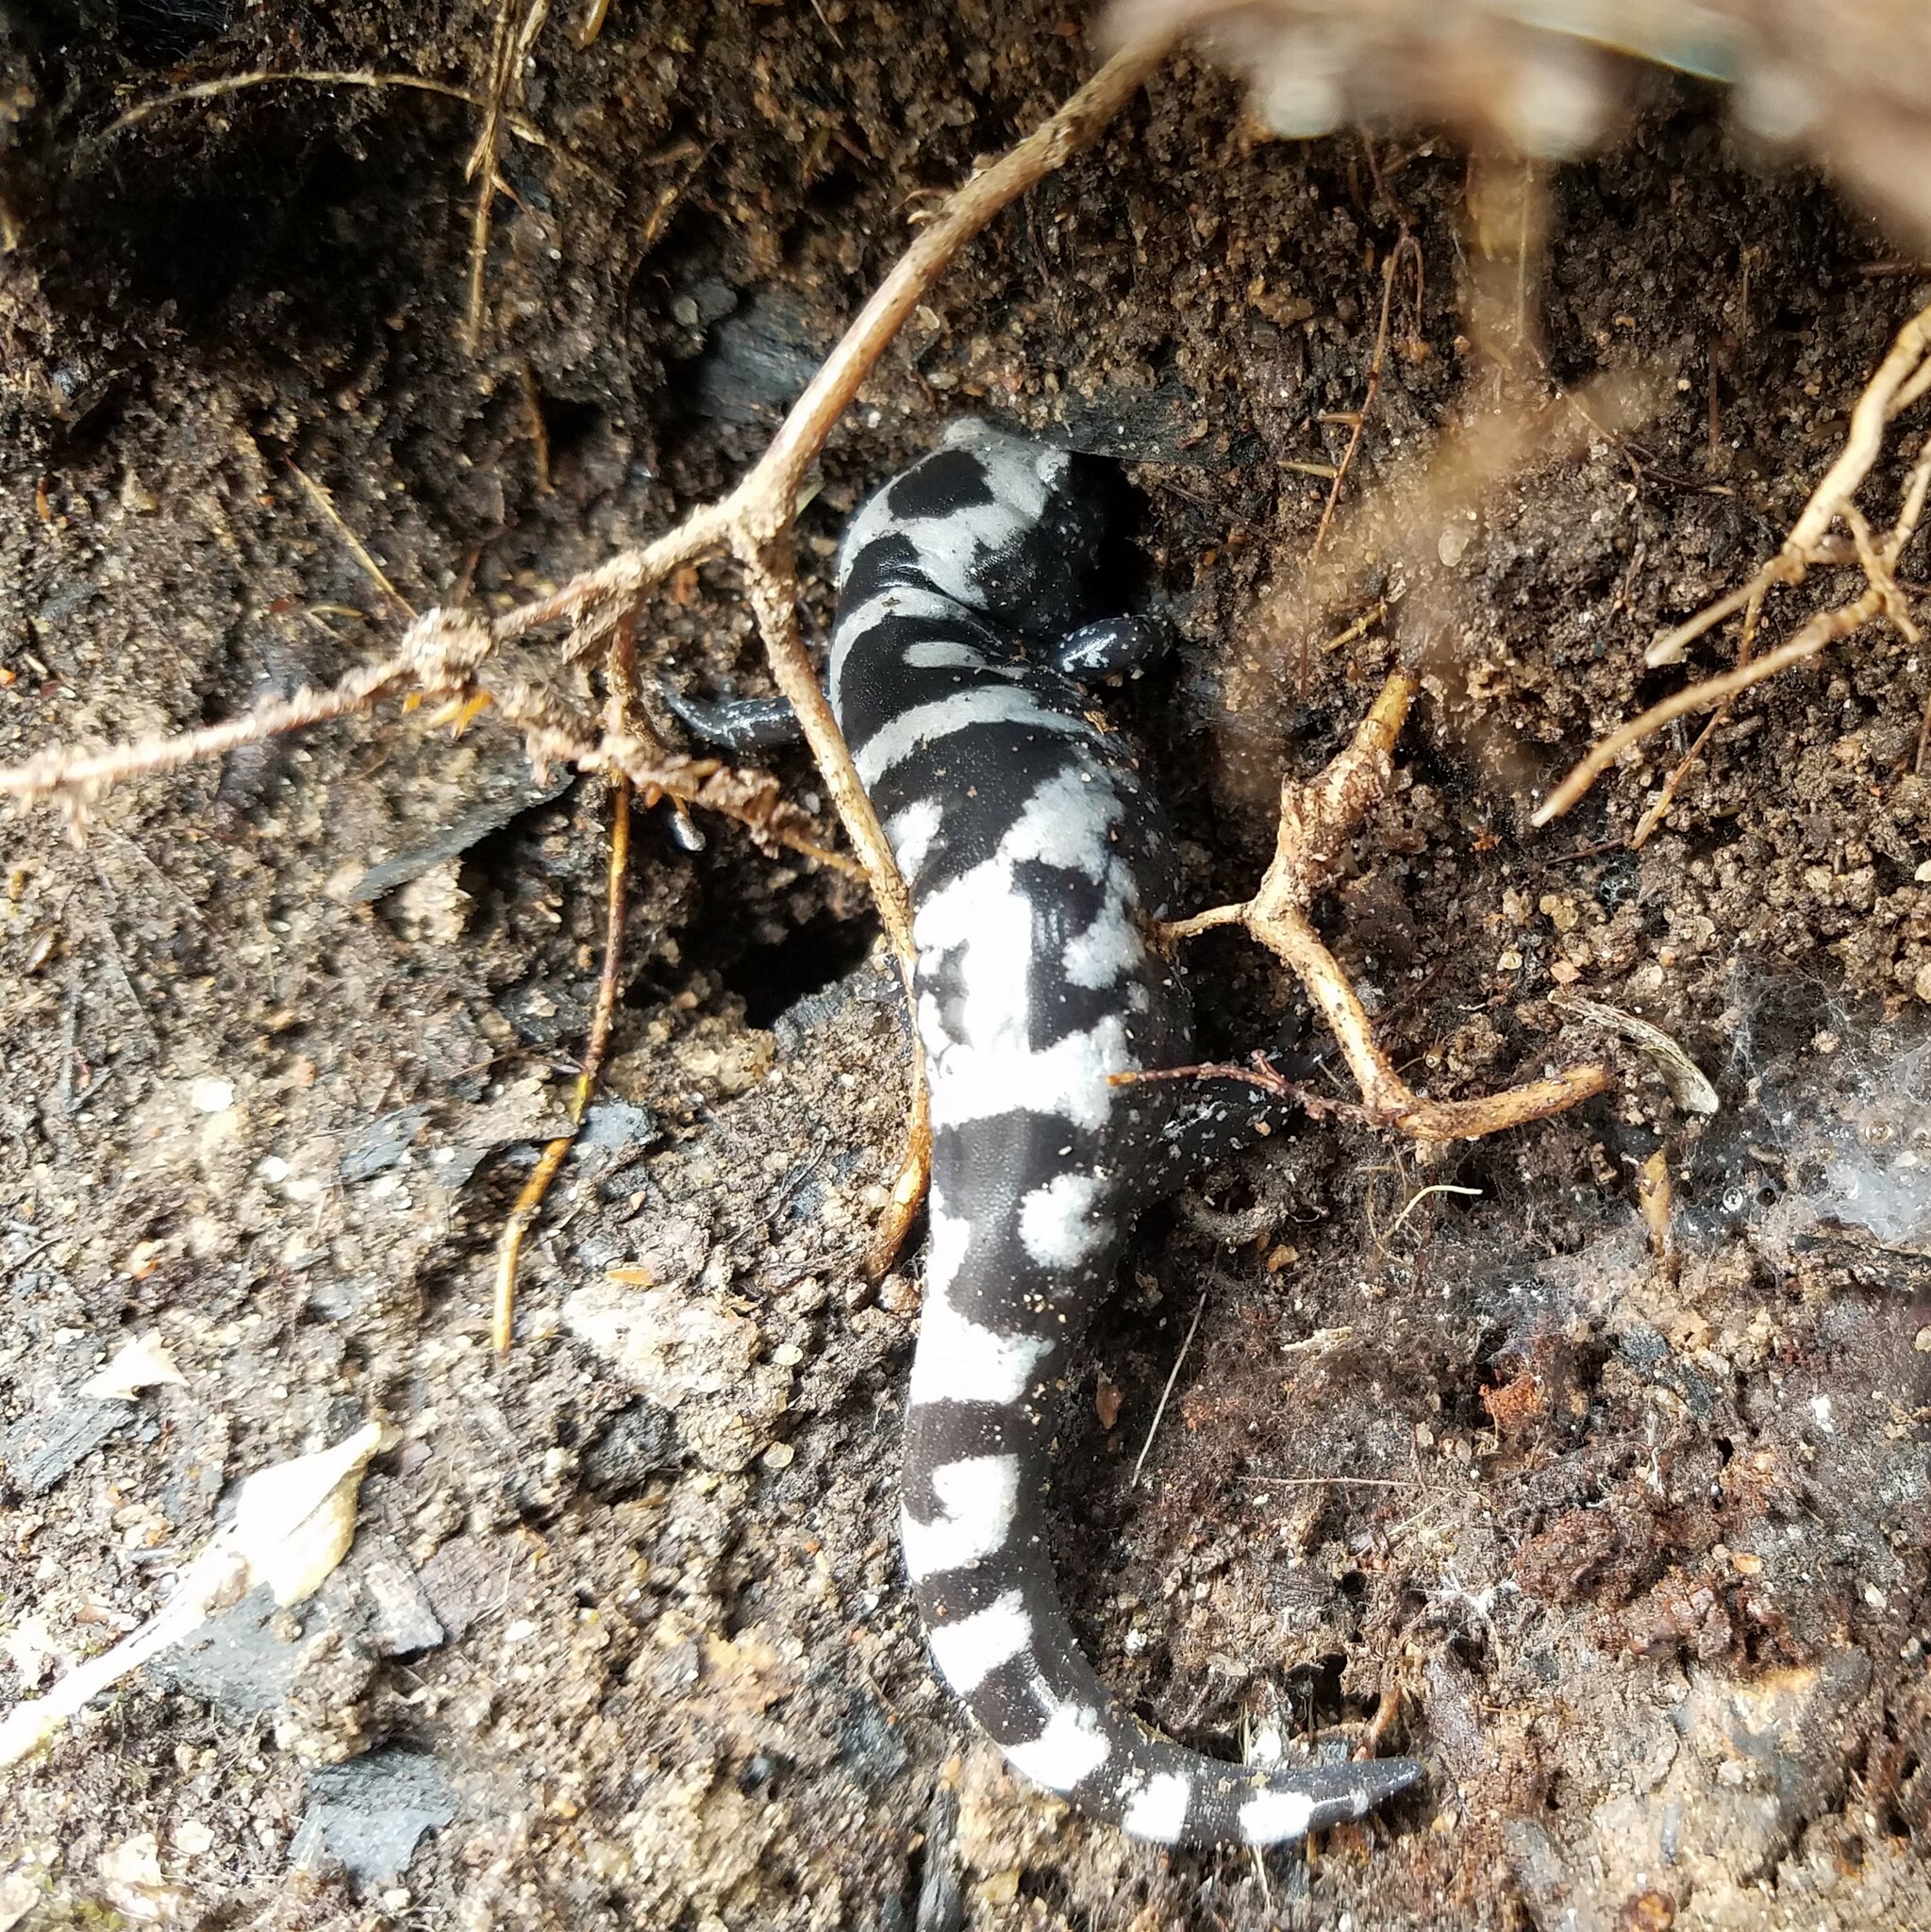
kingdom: Animalia
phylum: Chordata
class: Amphibia
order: Caudata
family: Ambystomatidae
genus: Ambystoma
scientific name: Ambystoma opacum
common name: Marbled salamander
